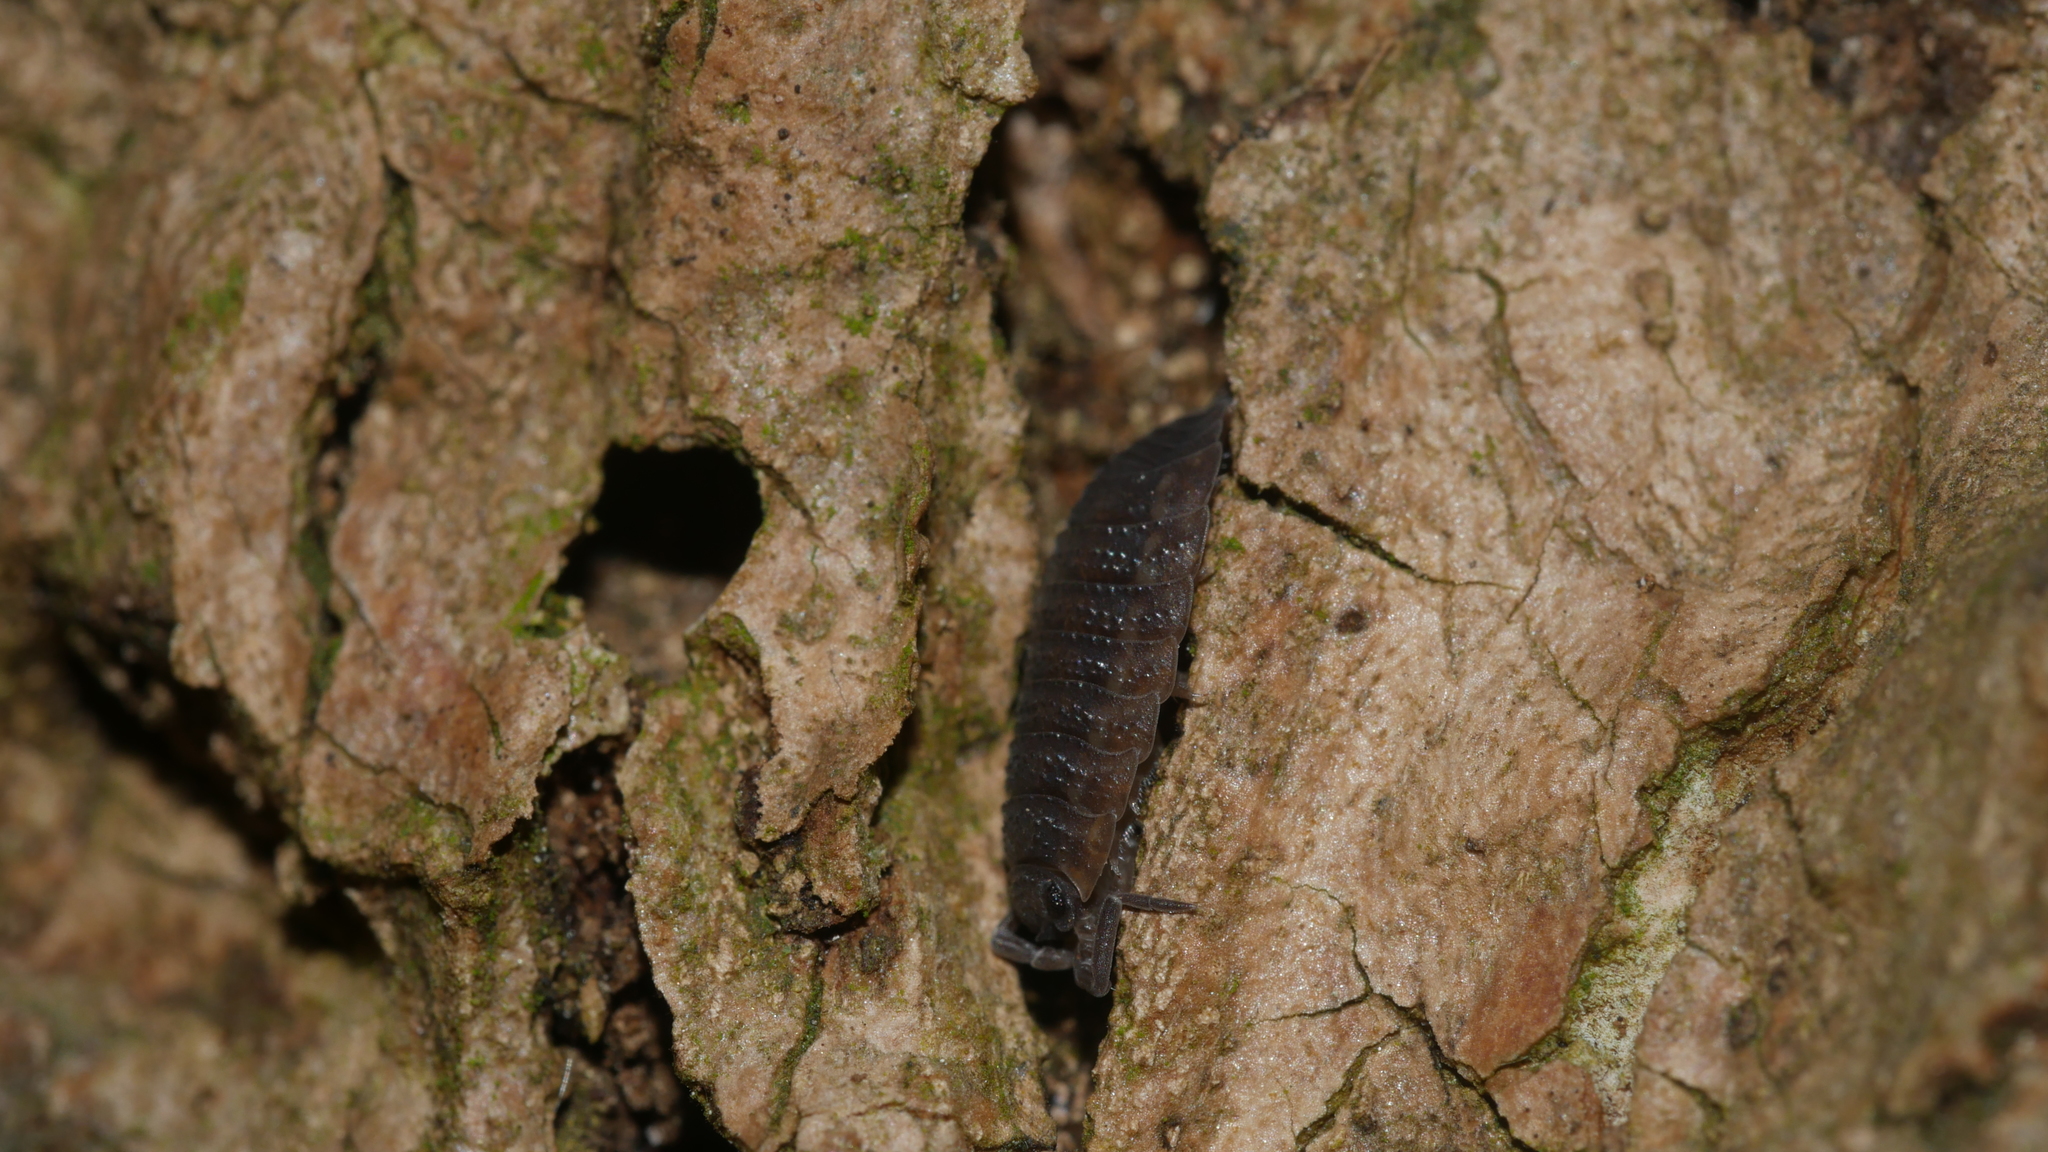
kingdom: Animalia
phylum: Arthropoda
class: Malacostraca
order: Isopoda
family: Porcellionidae
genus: Porcellio
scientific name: Porcellio scaber
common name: Common rough woodlouse
